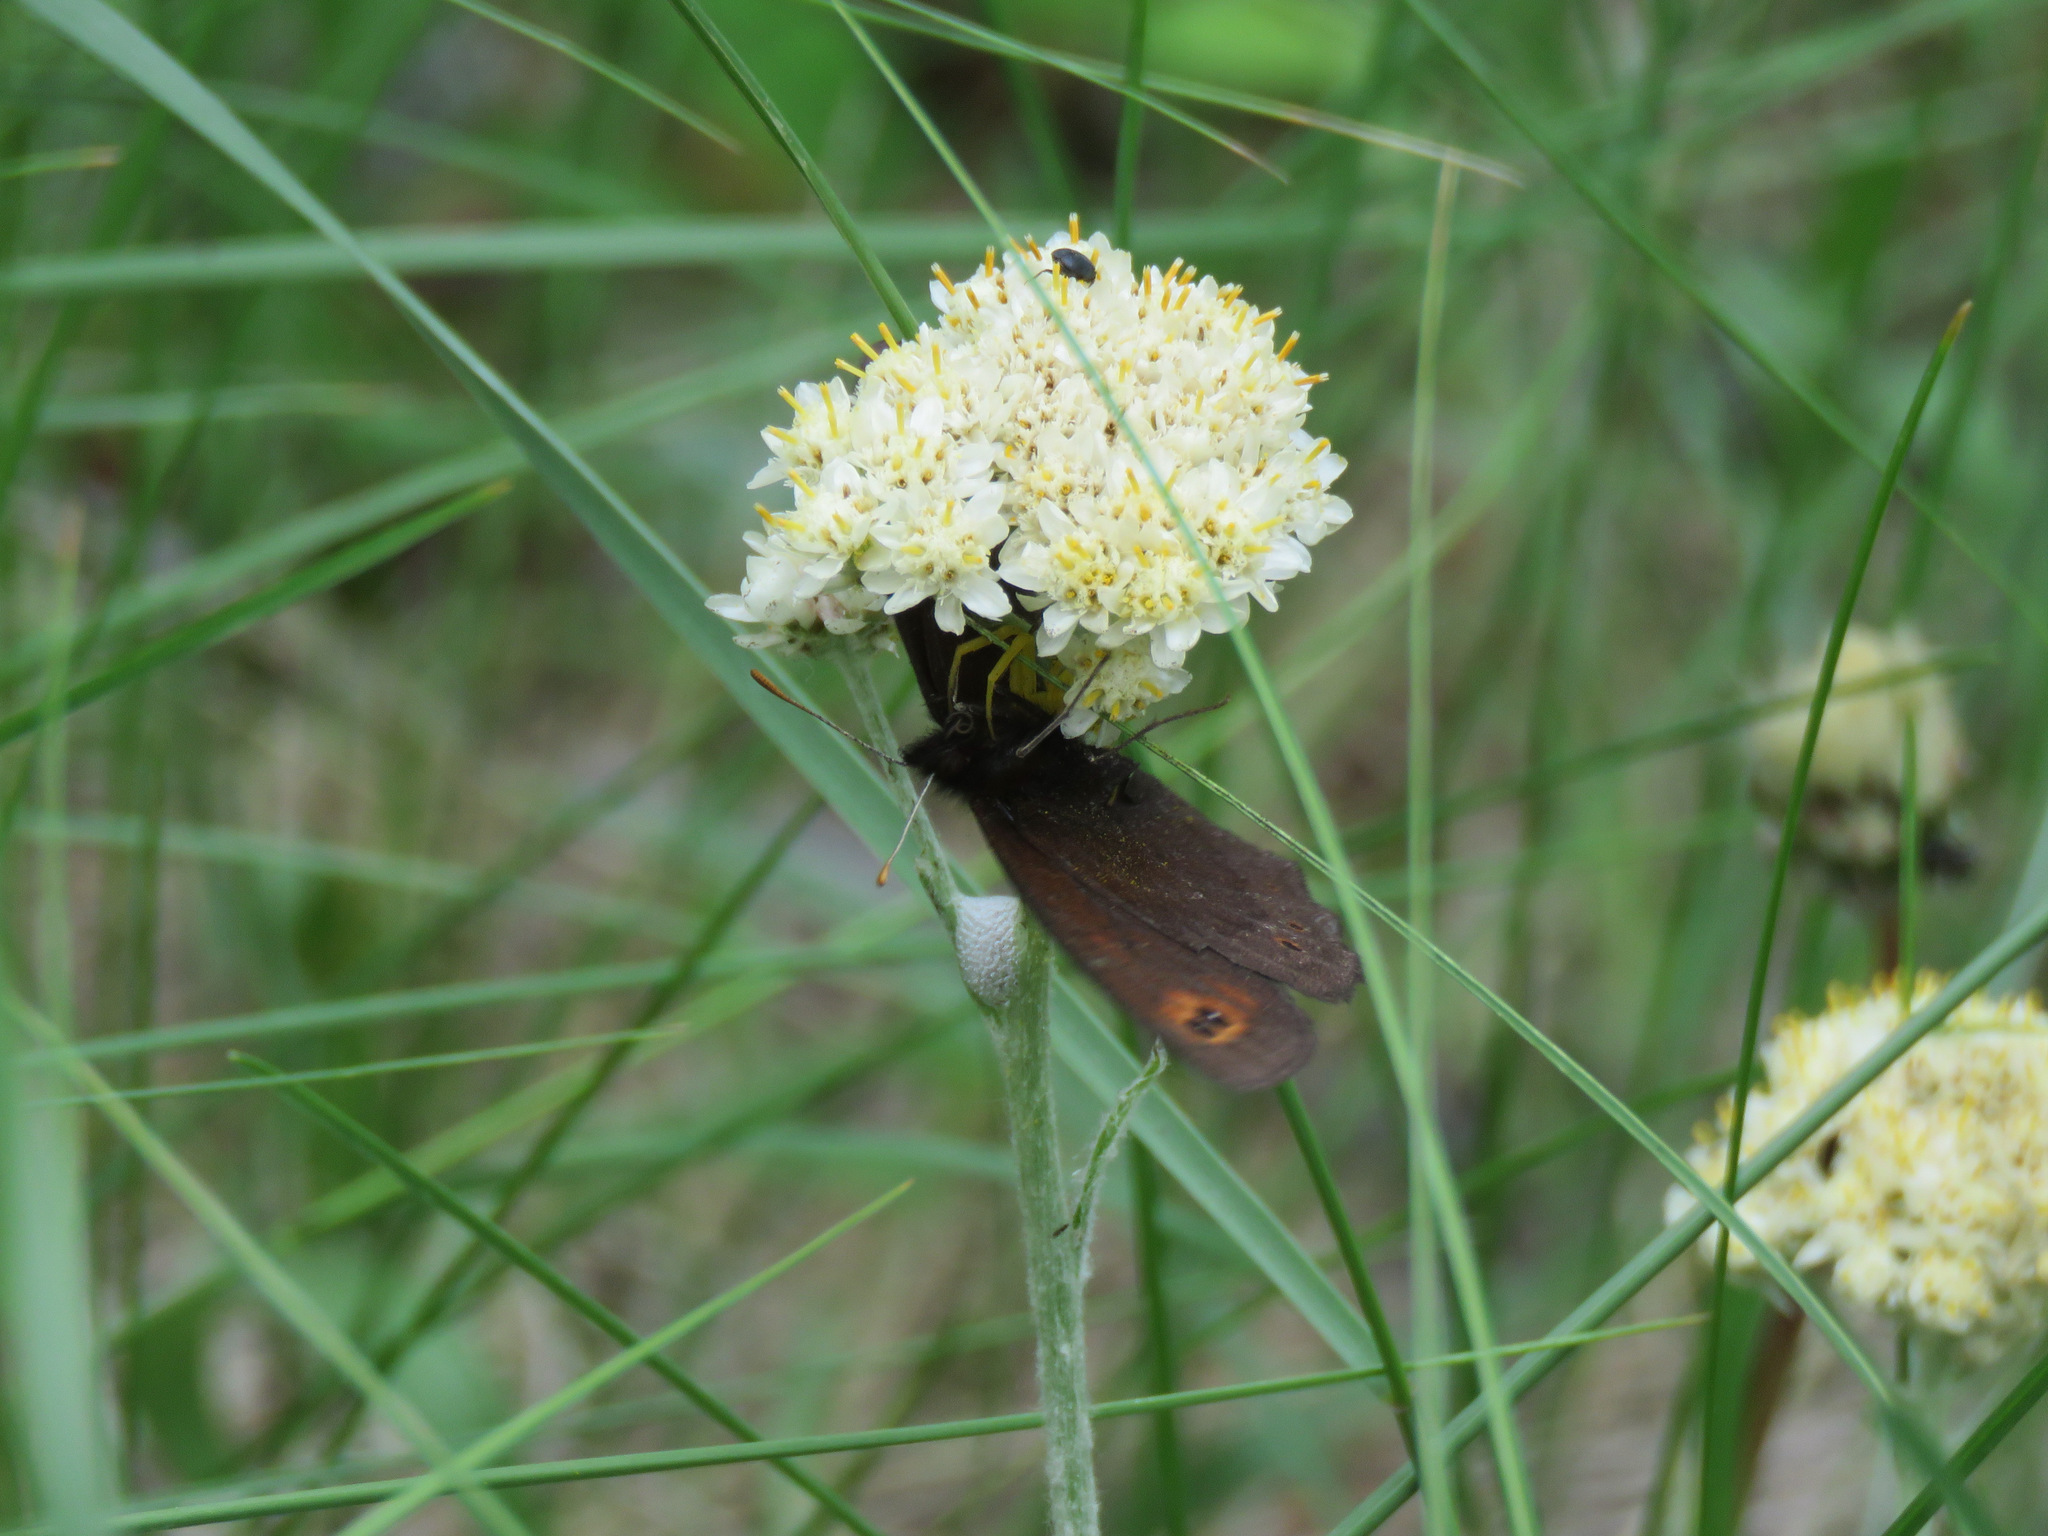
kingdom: Animalia
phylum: Arthropoda
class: Insecta
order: Lepidoptera
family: Nymphalidae
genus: Erebia
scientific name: Erebia epipsodea
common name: Common alpine
